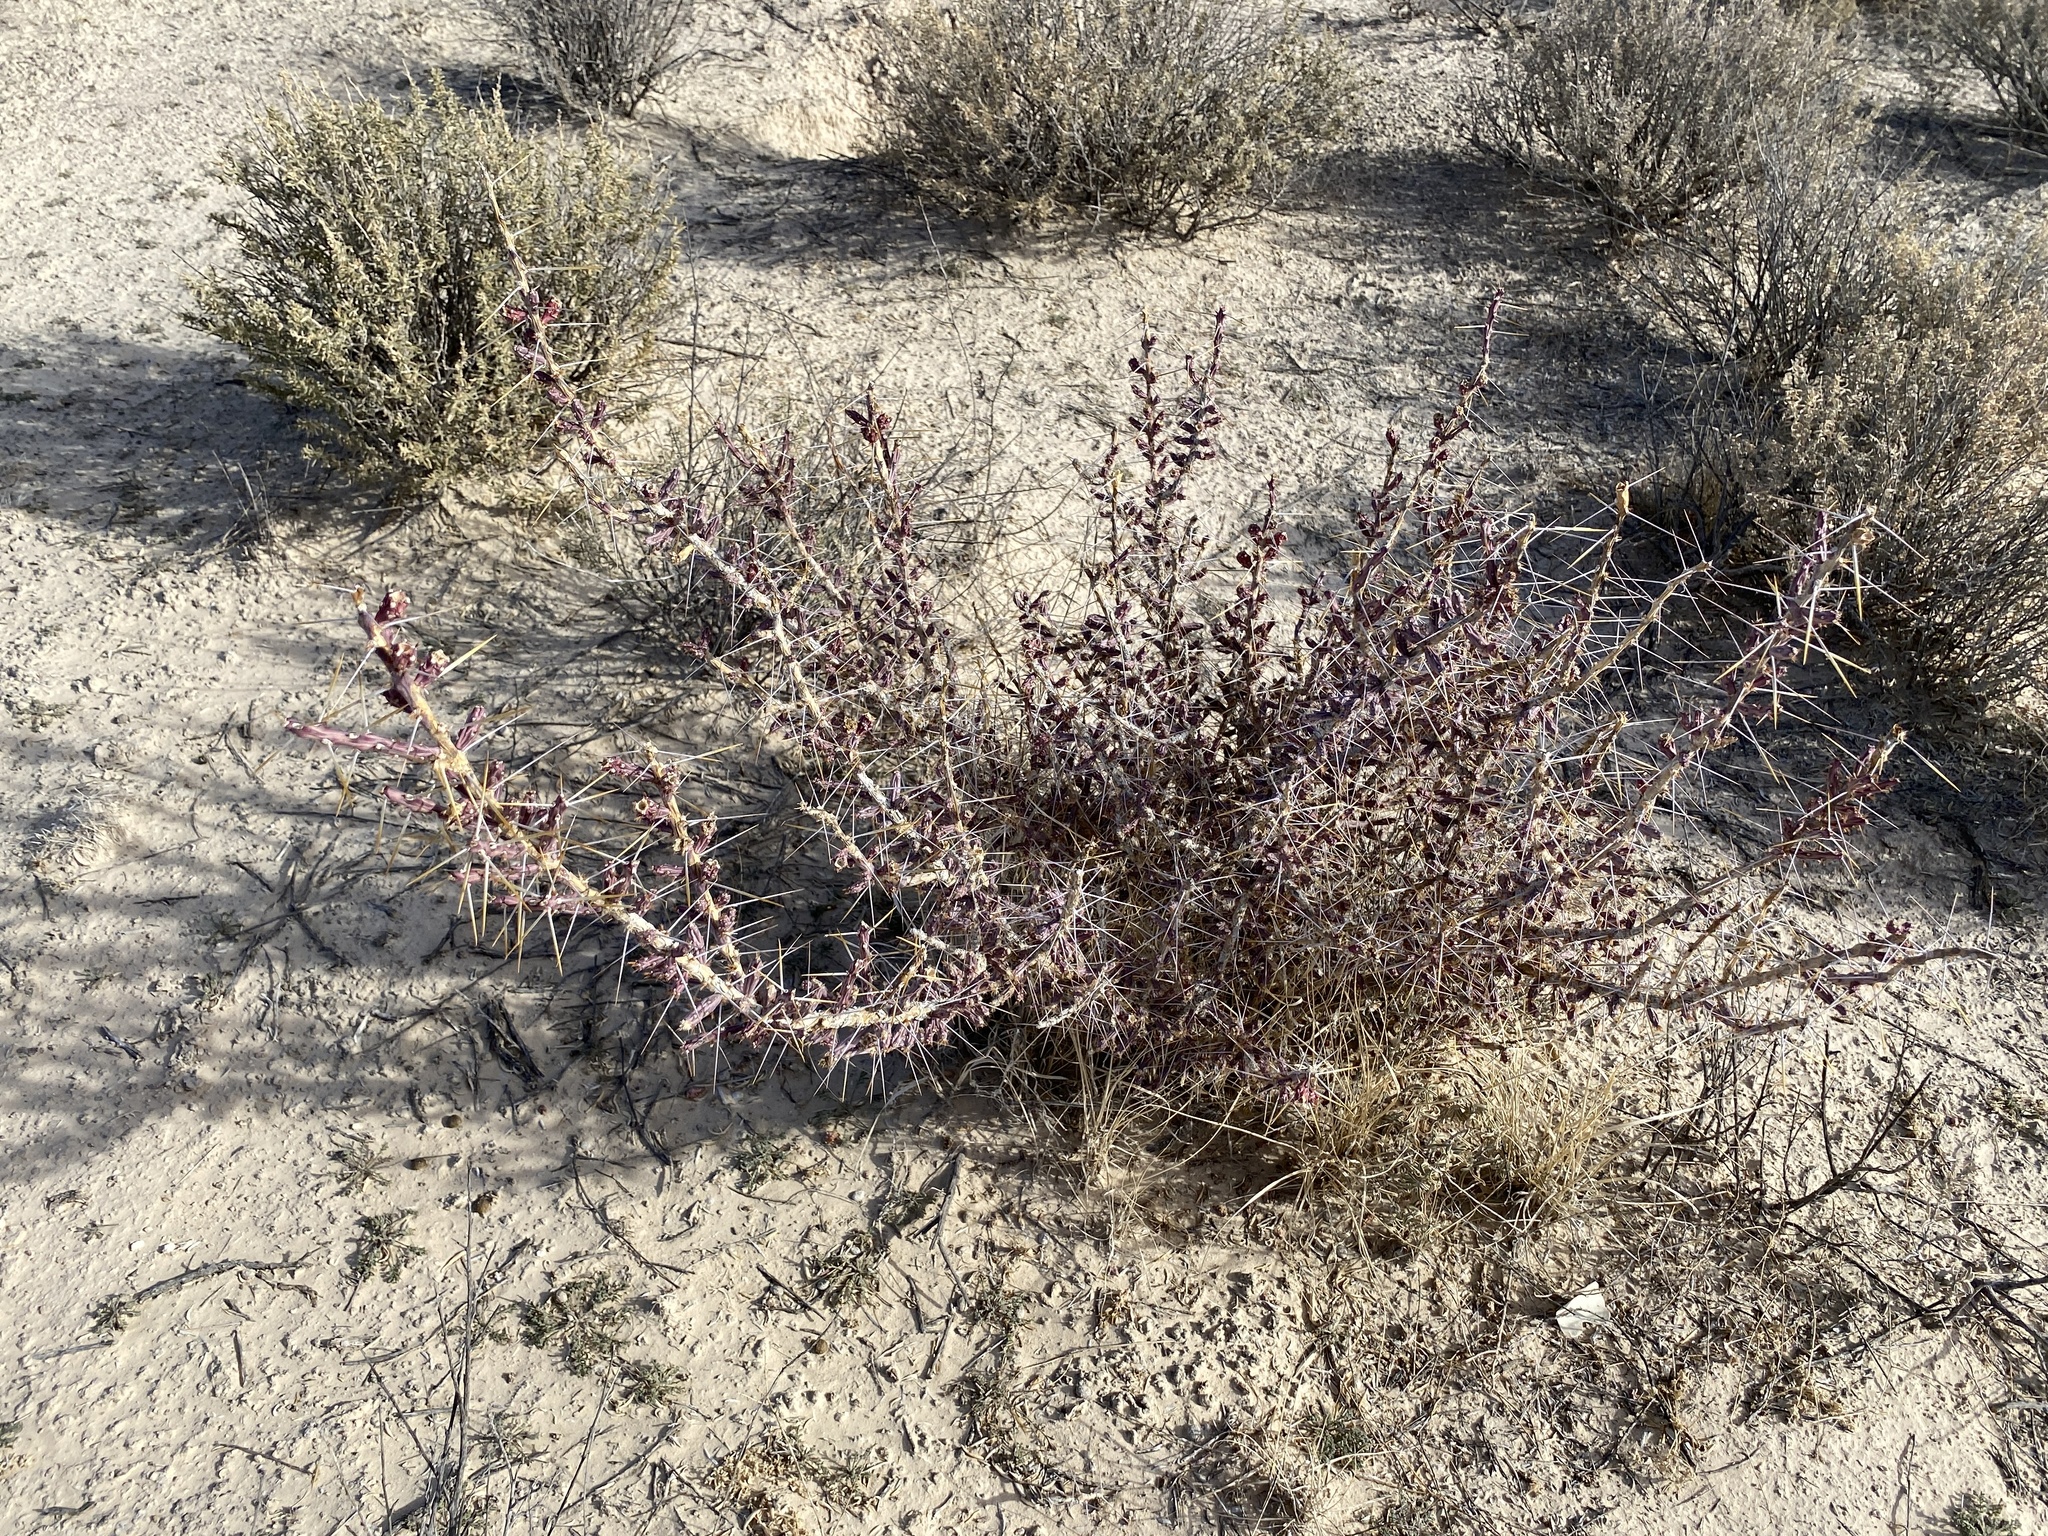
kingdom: Plantae
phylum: Tracheophyta
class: Magnoliopsida
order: Caryophyllales
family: Cactaceae
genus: Cylindropuntia
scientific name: Cylindropuntia leptocaulis
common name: Christmas cactus
